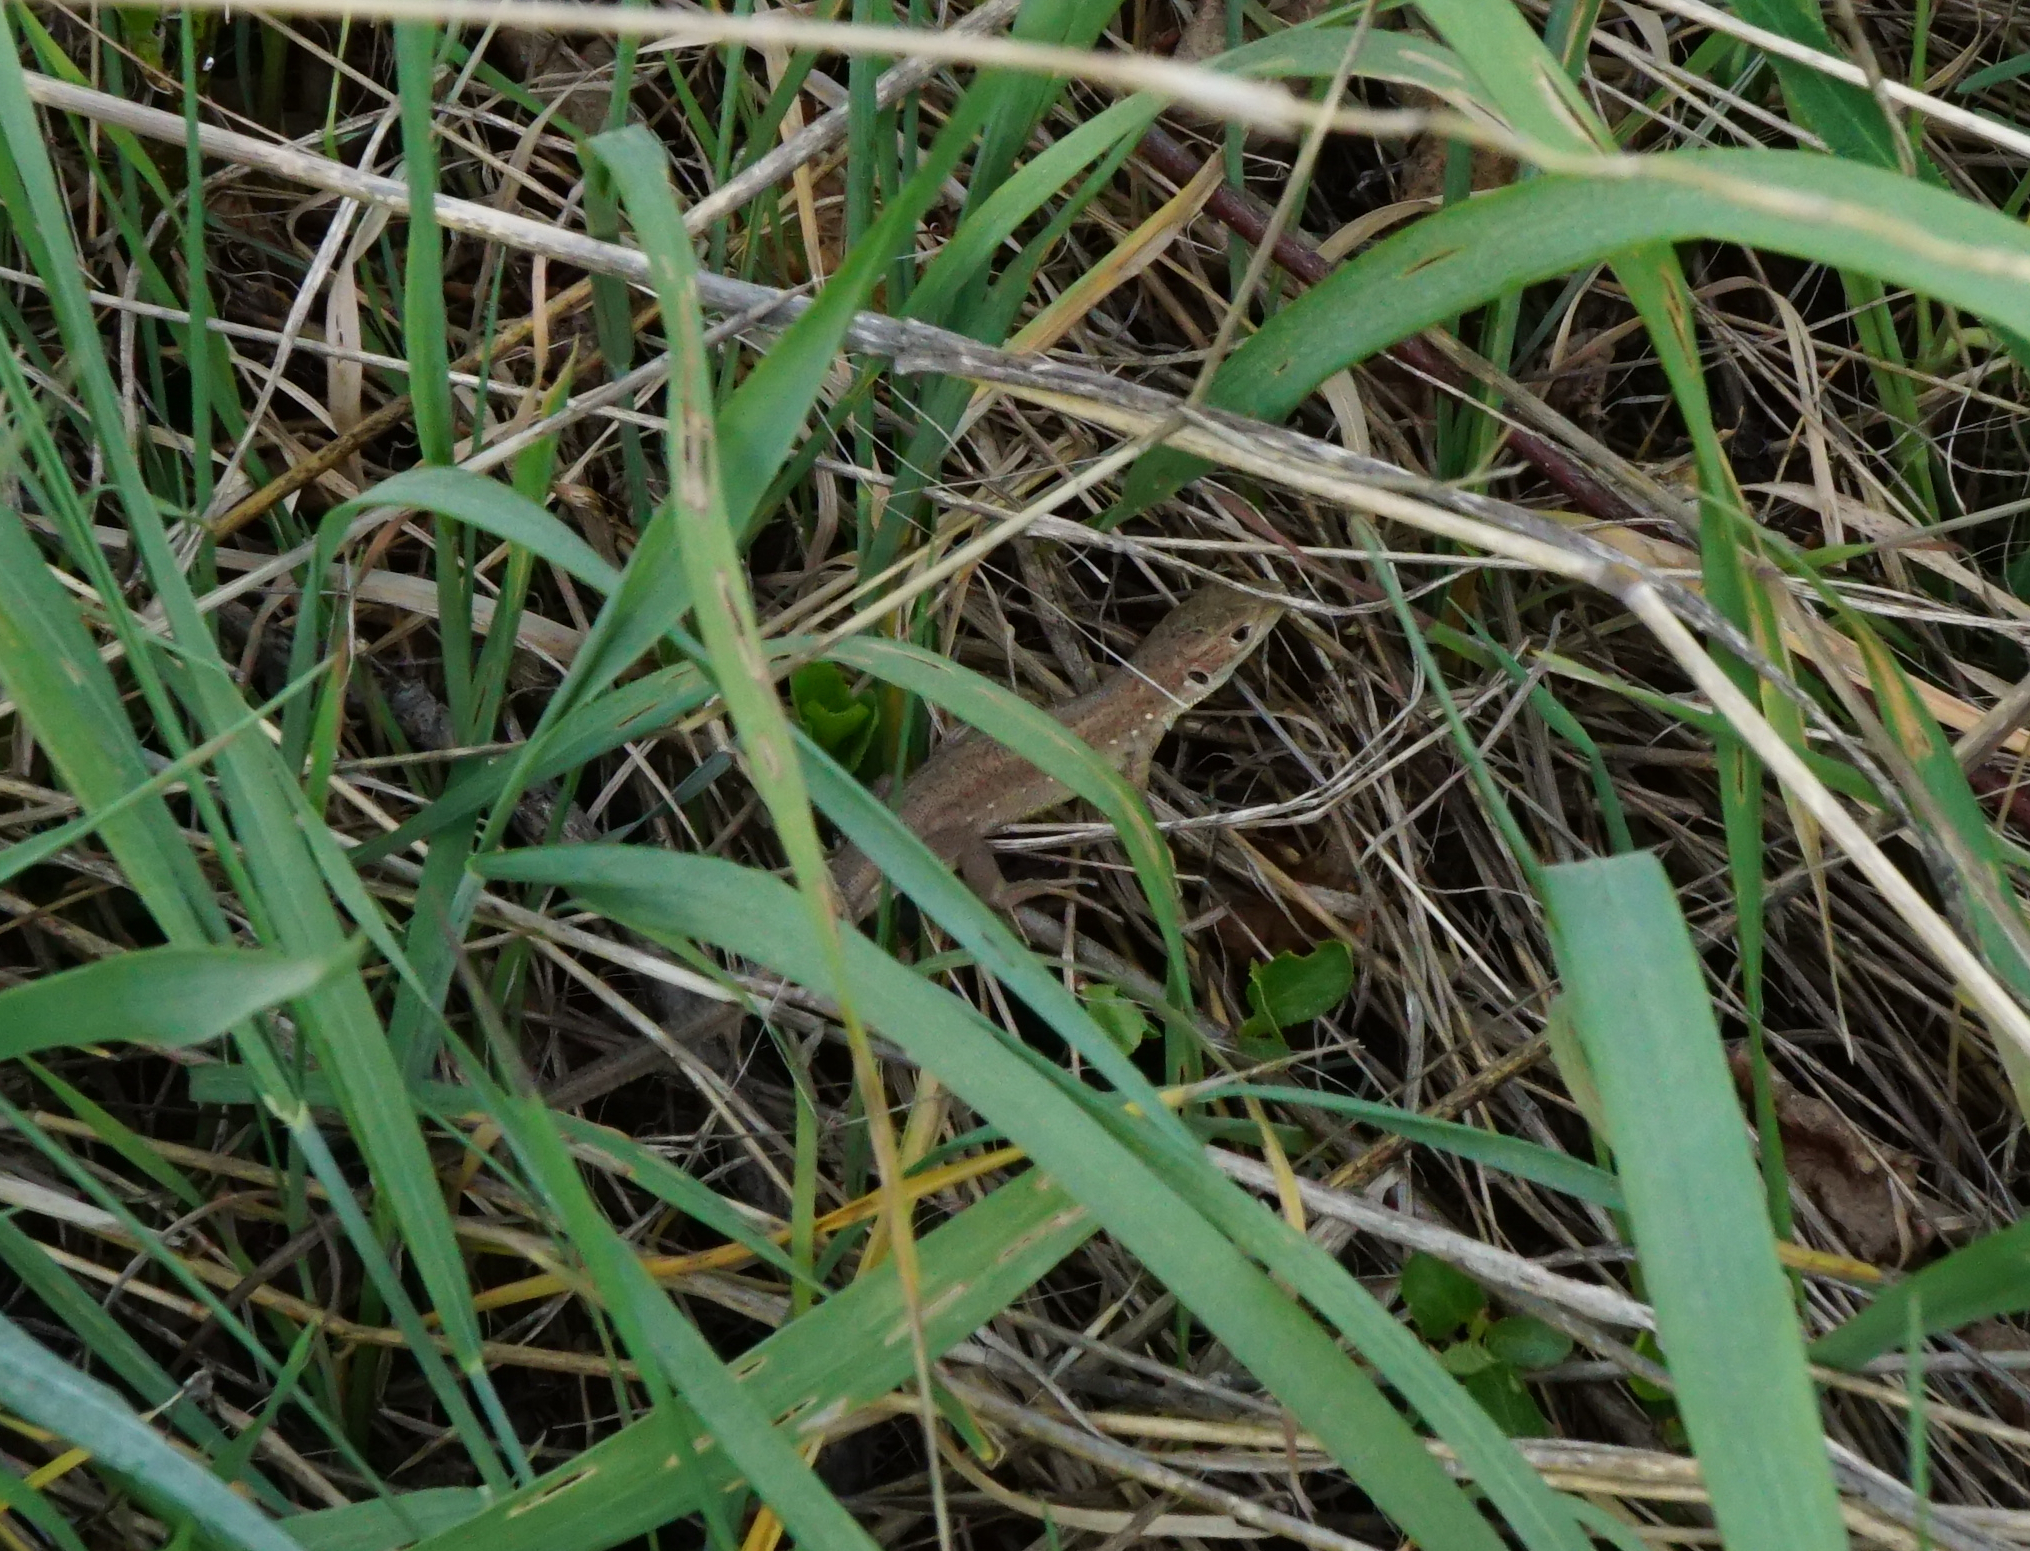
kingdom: Animalia
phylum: Chordata
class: Squamata
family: Lacertidae
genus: Lacerta
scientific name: Lacerta viridis
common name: European green lizard
